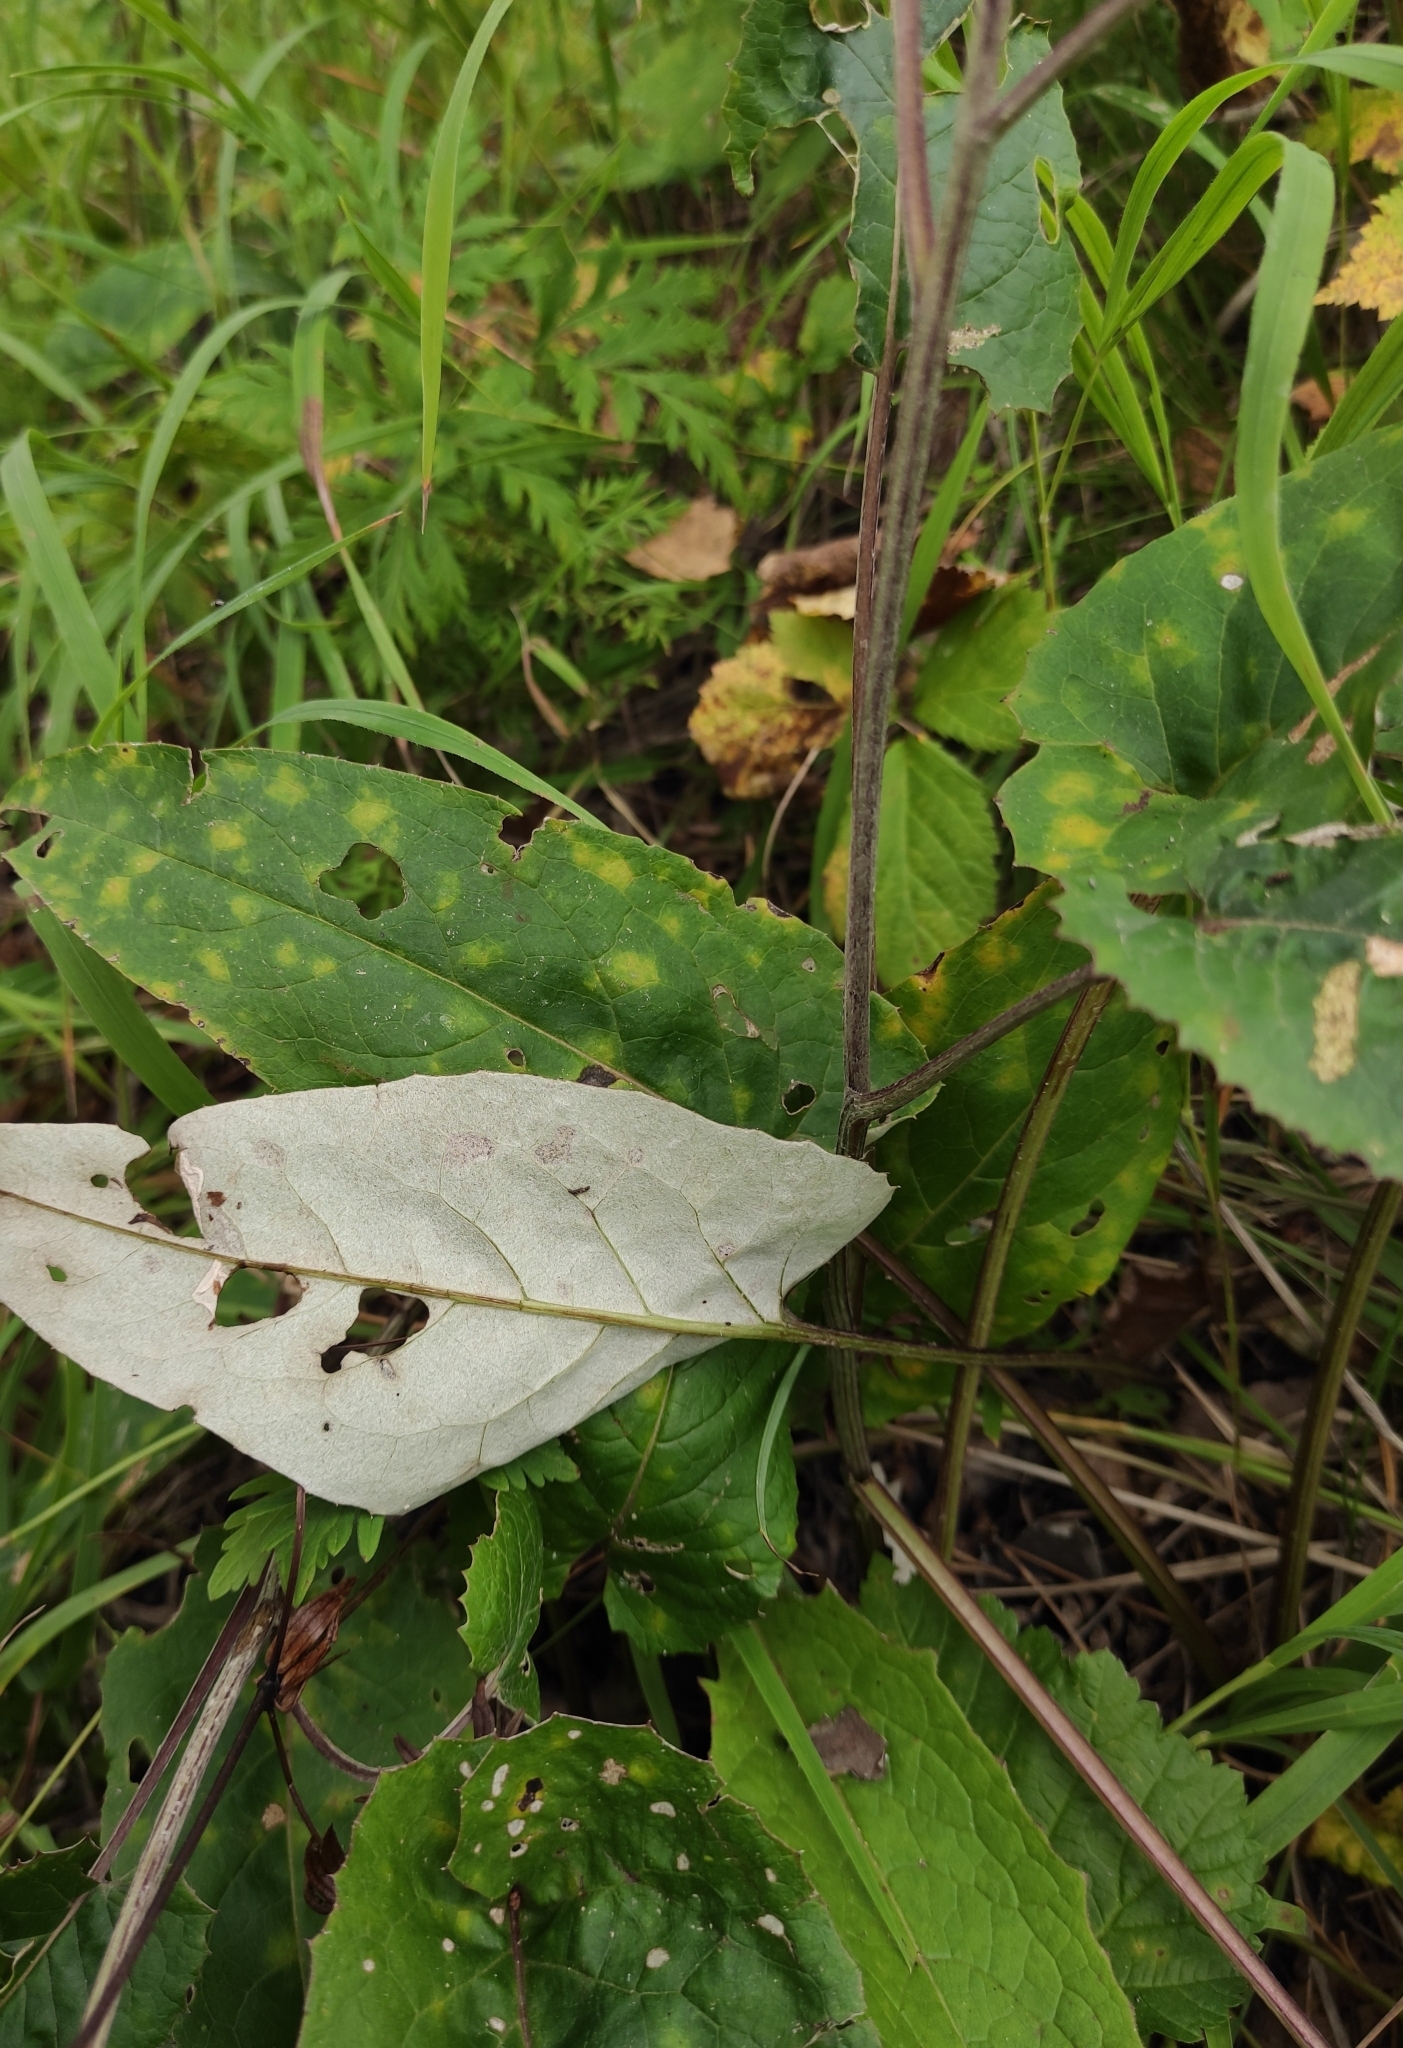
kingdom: Plantae
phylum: Tracheophyta
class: Magnoliopsida
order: Asterales
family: Asteraceae
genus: Saussurea
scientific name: Saussurea controversa
